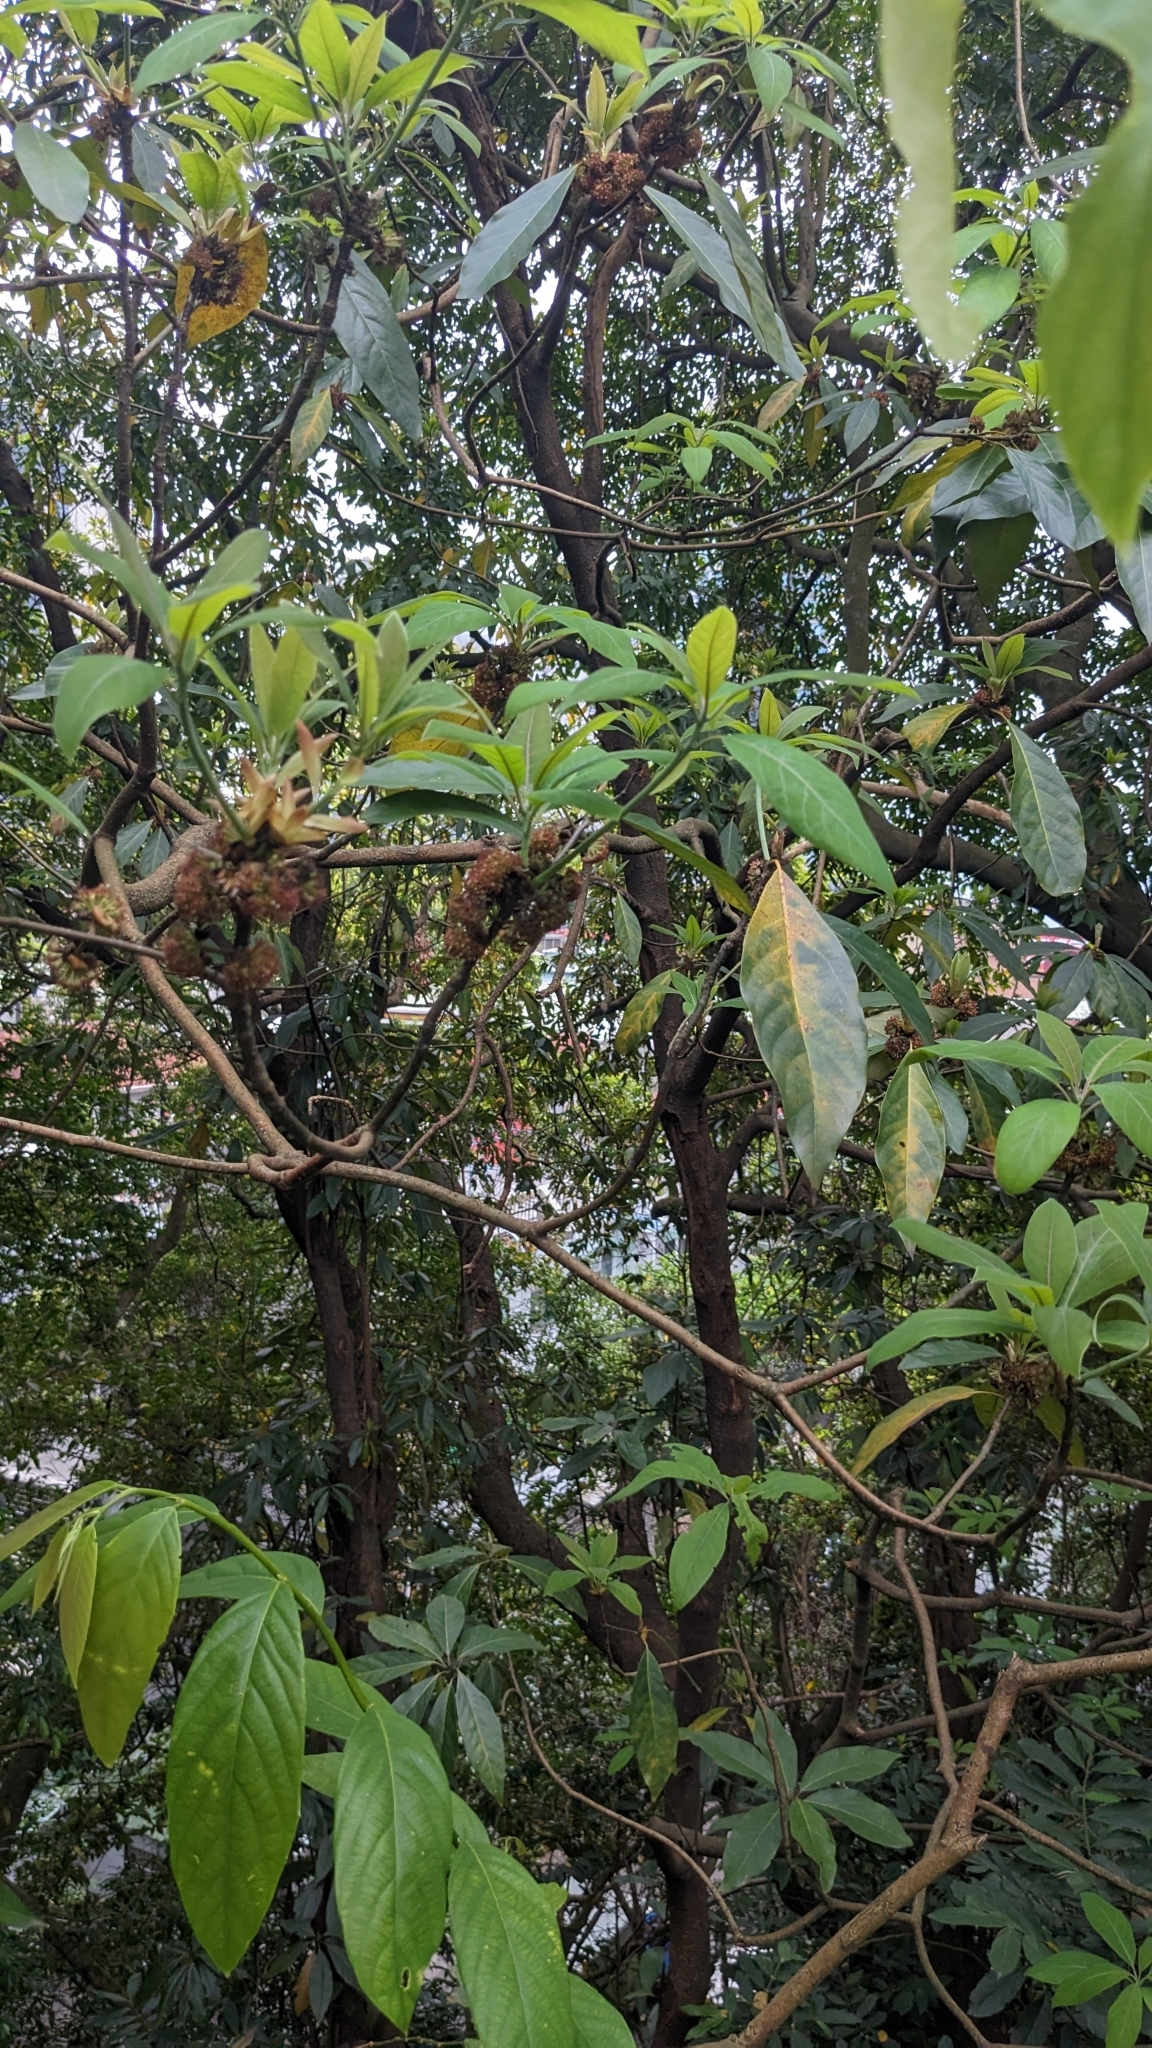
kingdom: Plantae
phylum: Tracheophyta
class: Magnoliopsida
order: Laurales
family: Lauraceae
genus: Lindera
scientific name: Lindera megaphylla
